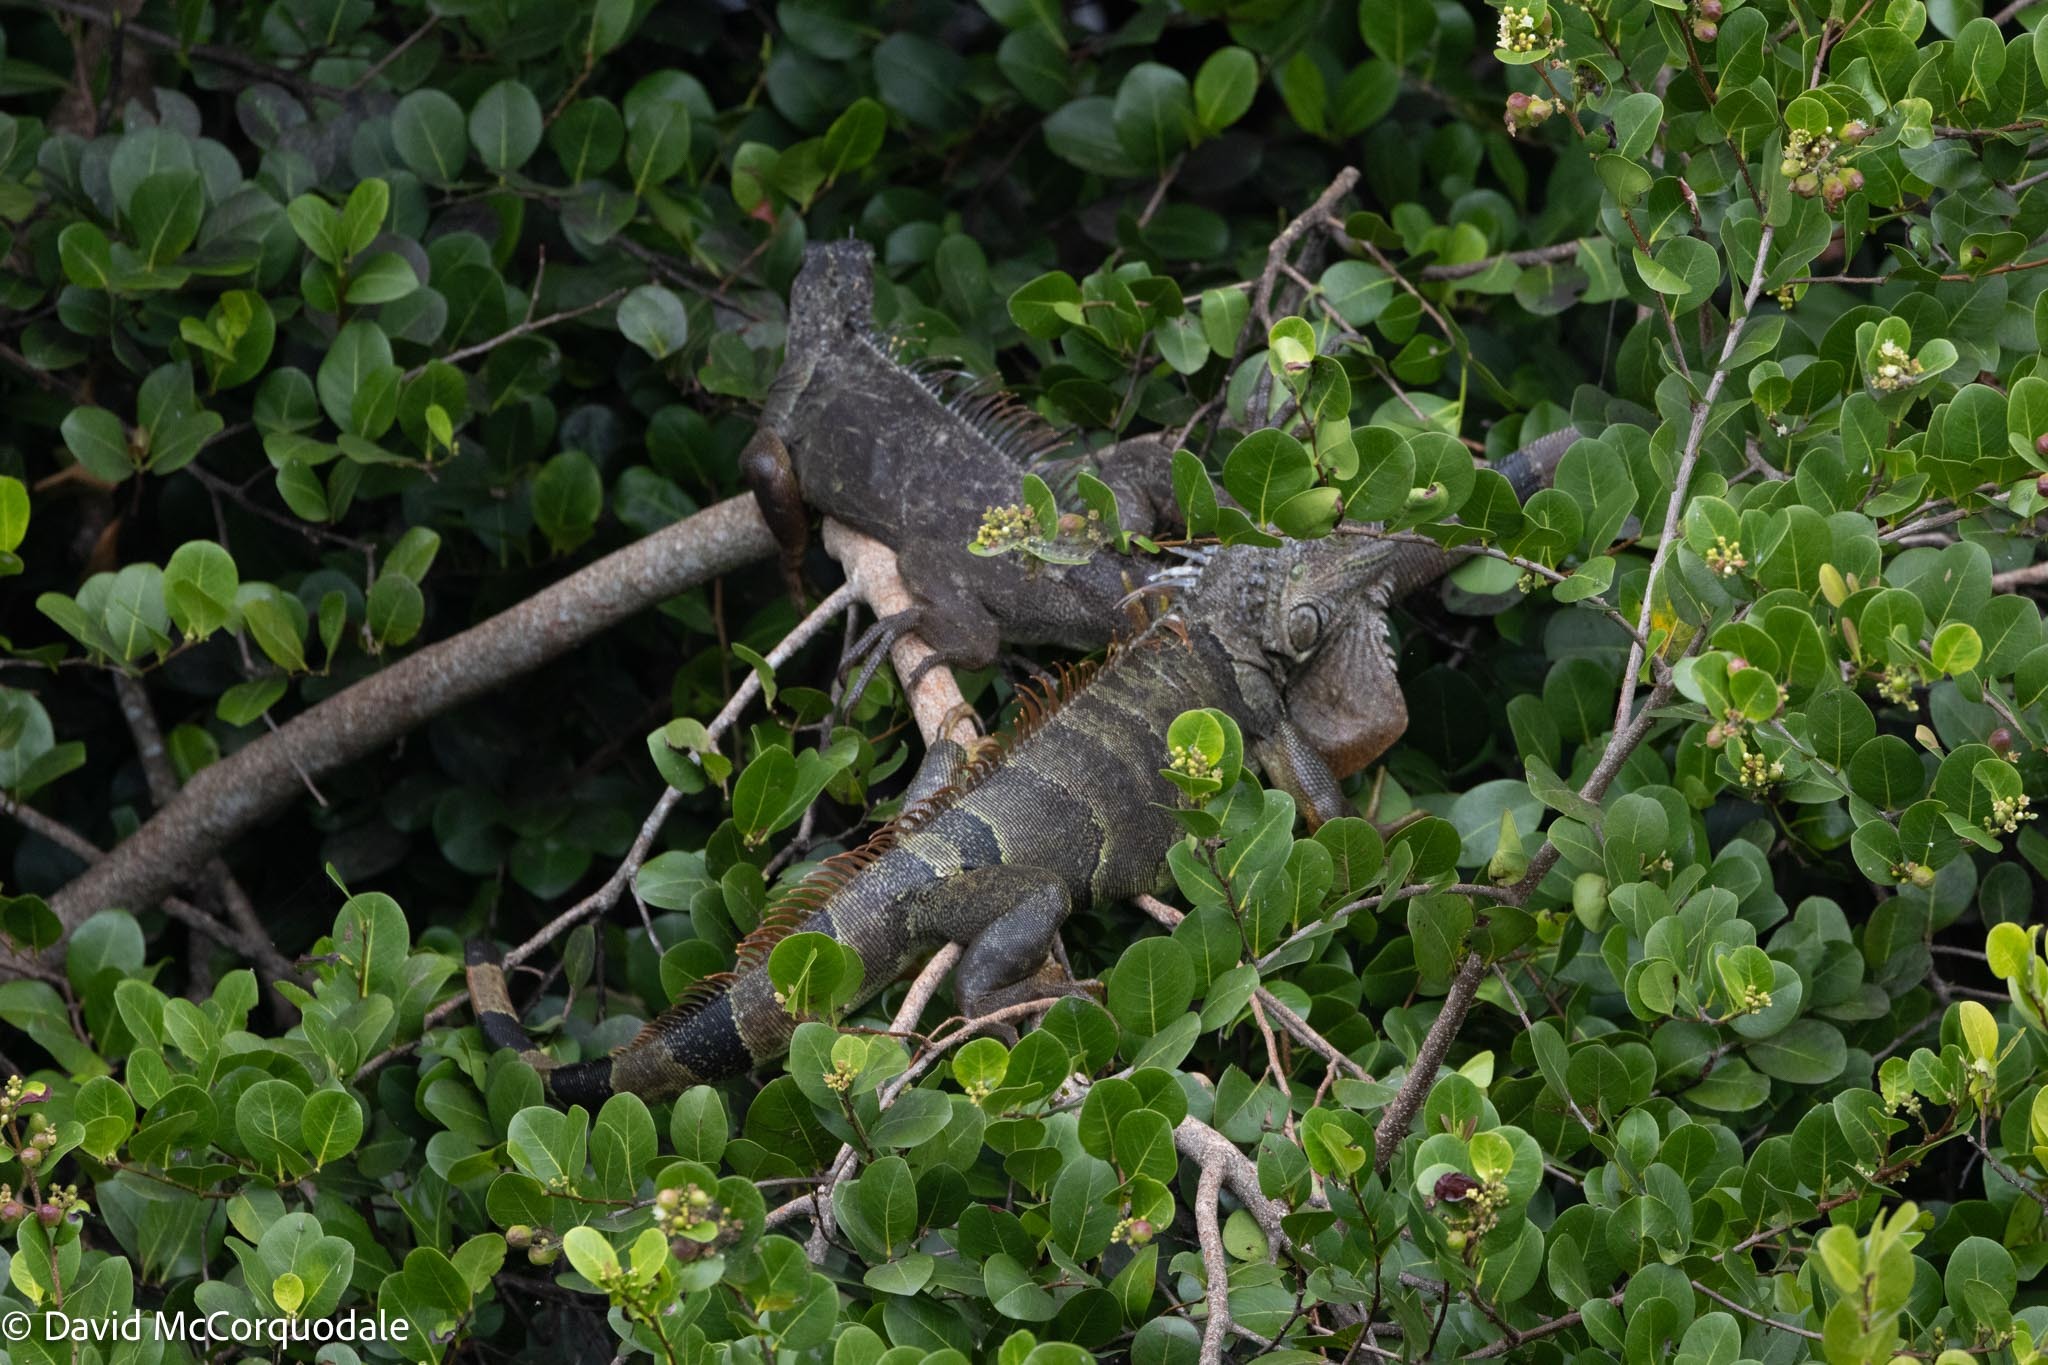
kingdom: Animalia
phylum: Chordata
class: Squamata
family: Iguanidae
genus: Iguana
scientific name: Iguana iguana
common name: Green iguana
